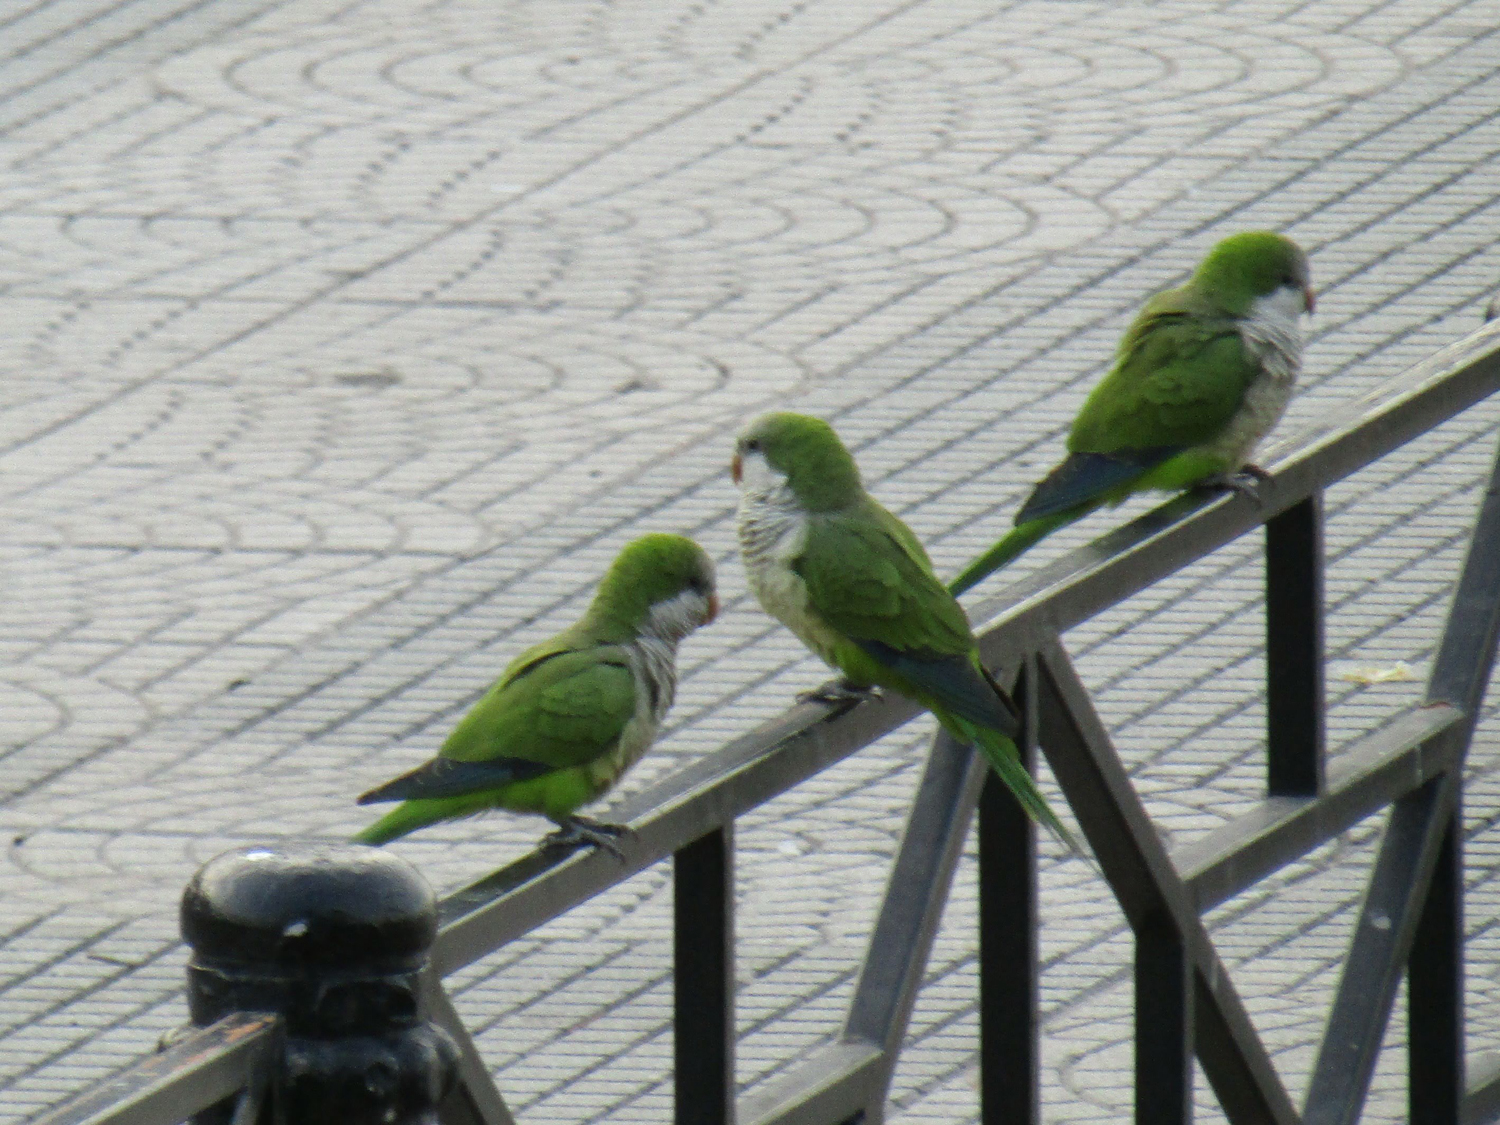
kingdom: Animalia
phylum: Chordata
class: Aves
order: Psittaciformes
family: Psittacidae
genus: Myiopsitta
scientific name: Myiopsitta monachus
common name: Monk parakeet
